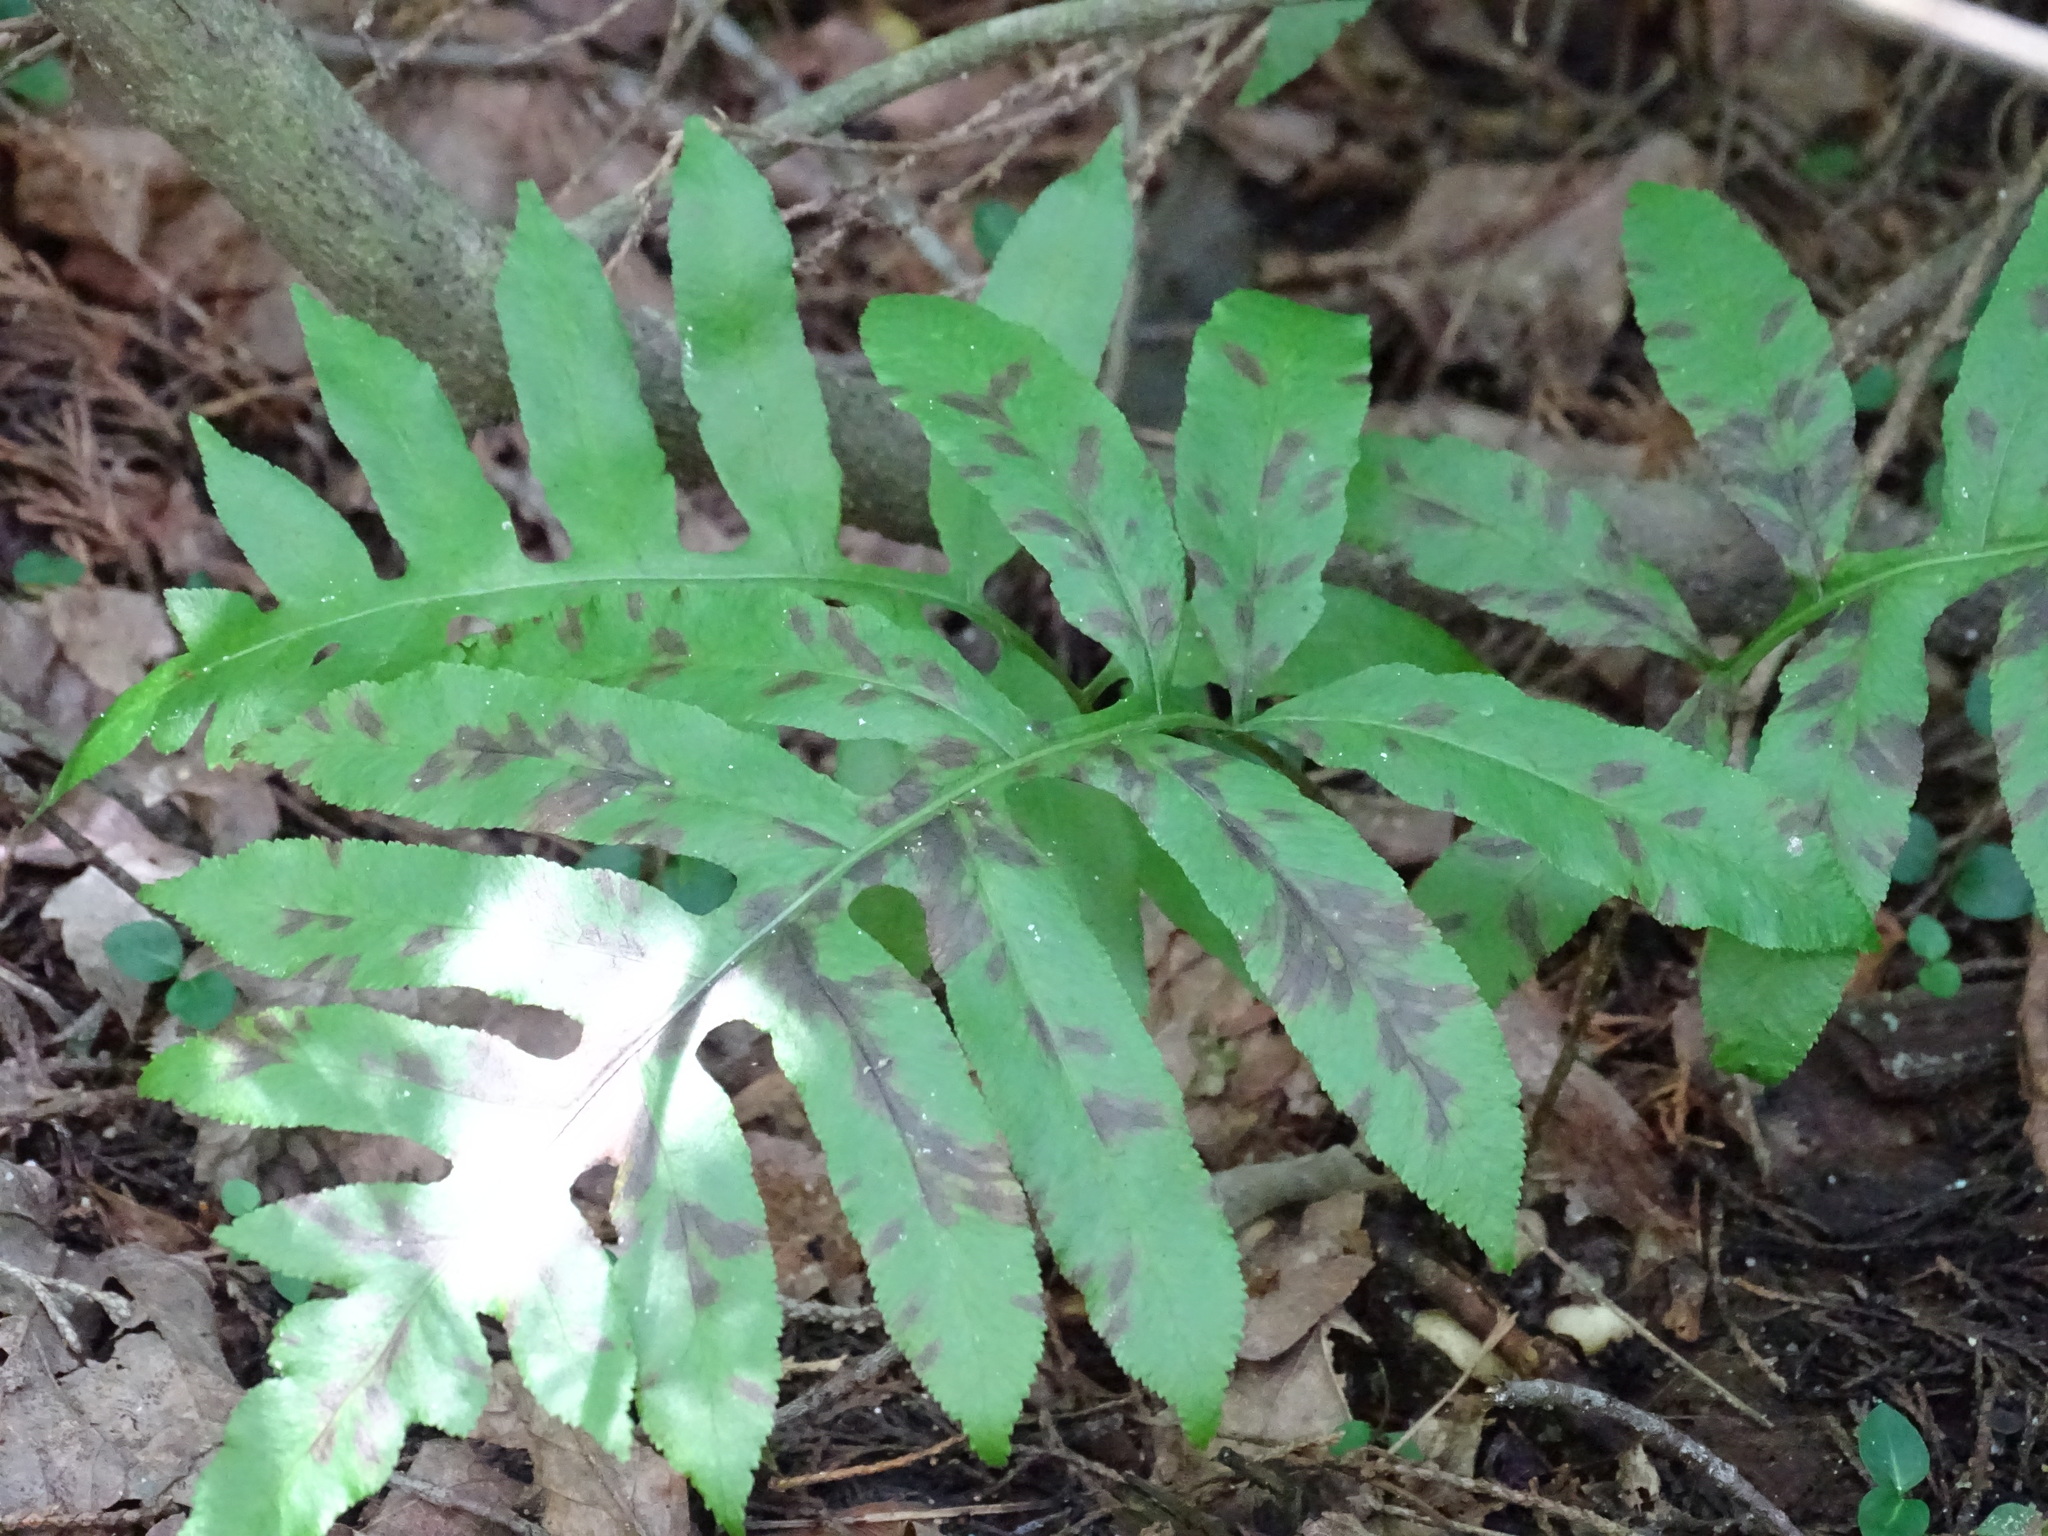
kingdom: Plantae
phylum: Tracheophyta
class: Polypodiopsida
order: Polypodiales
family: Blechnaceae
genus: Lorinseria
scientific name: Lorinseria areolata
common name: Dwarf chain fern
